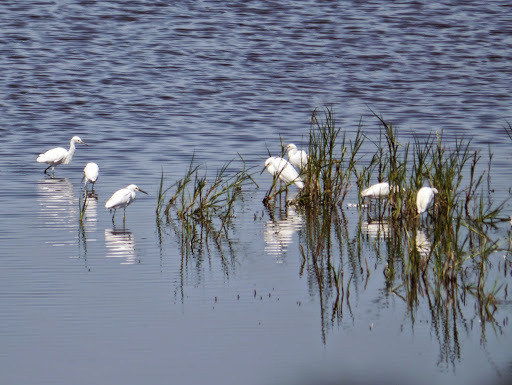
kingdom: Animalia
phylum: Chordata
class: Aves
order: Pelecaniformes
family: Ardeidae
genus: Egretta
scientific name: Egretta thula
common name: Snowy egret
